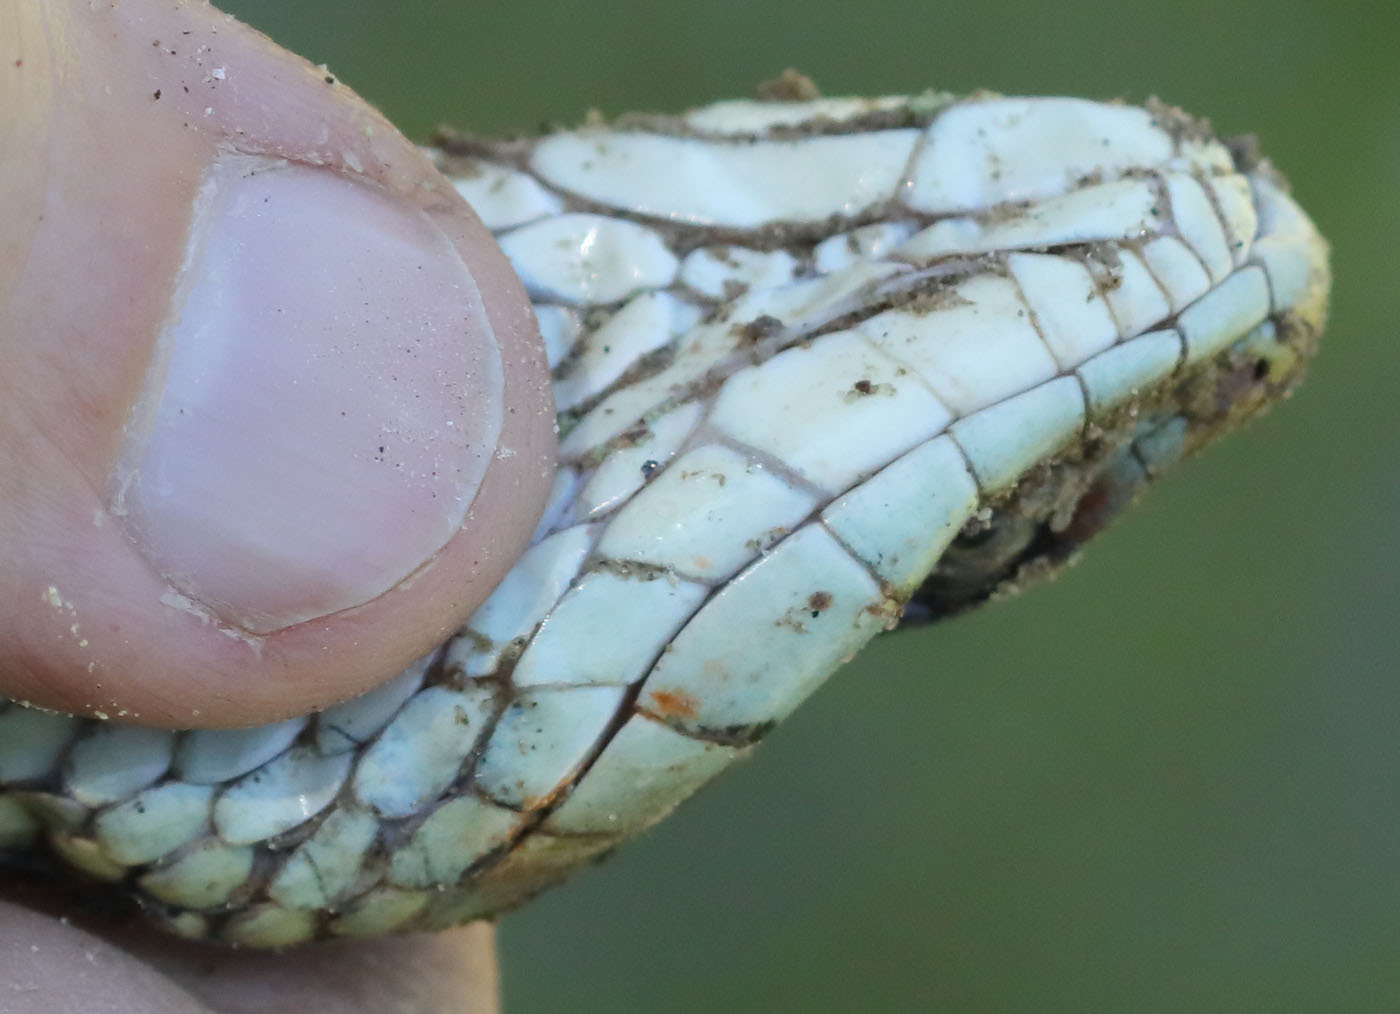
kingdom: Animalia
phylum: Chordata
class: Squamata
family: Colubridae
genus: Thamnophis
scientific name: Thamnophis sirtalis
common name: Common garter snake
